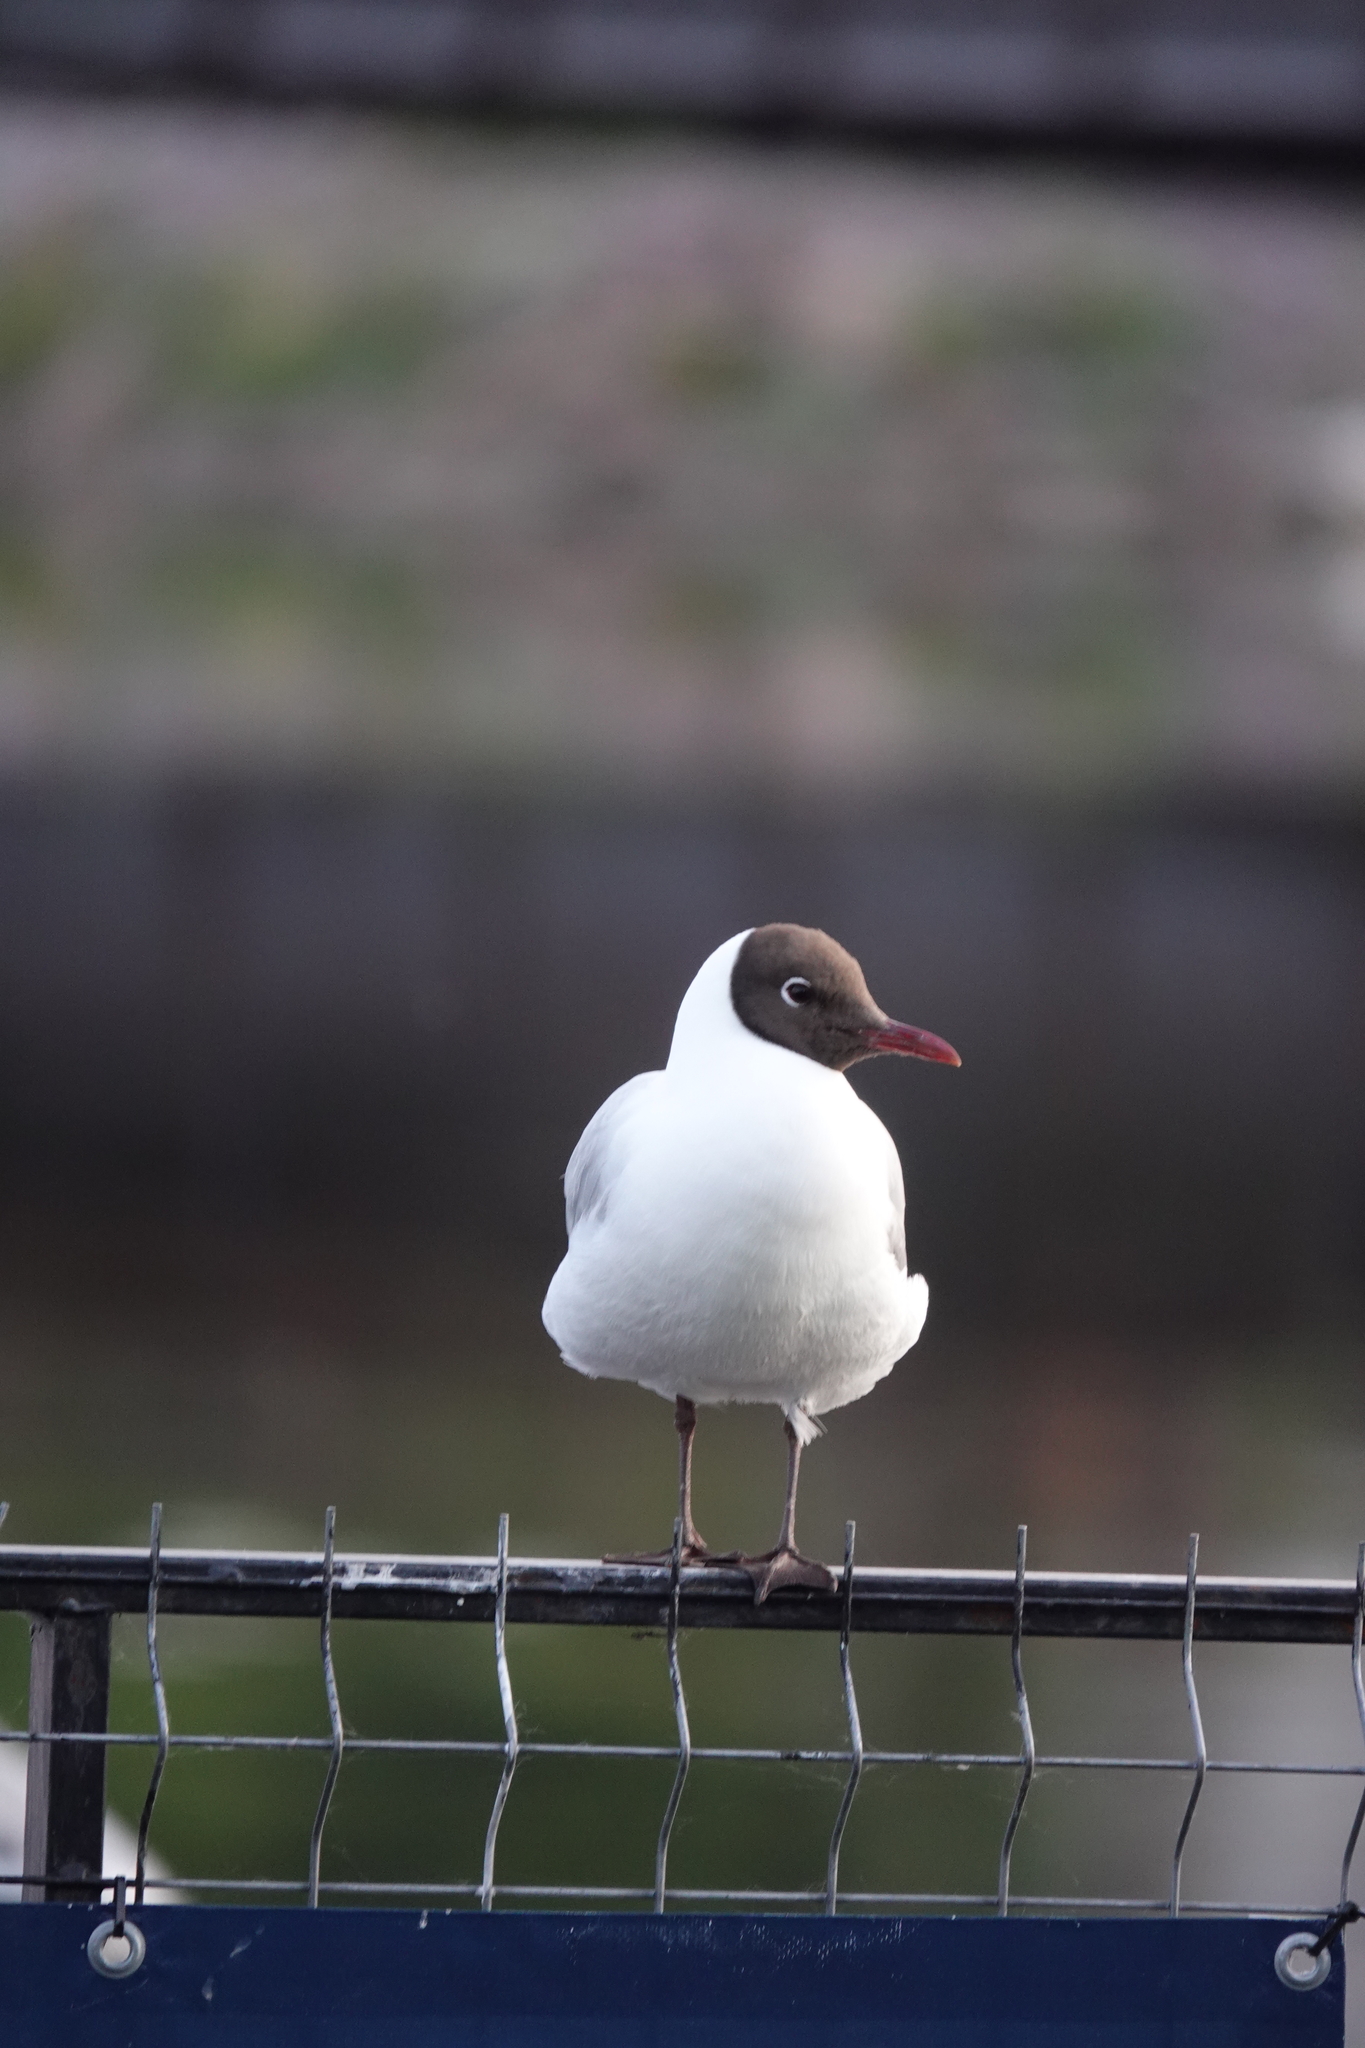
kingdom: Animalia
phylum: Chordata
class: Aves
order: Charadriiformes
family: Laridae
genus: Chroicocephalus
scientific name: Chroicocephalus ridibundus
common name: Black-headed gull
